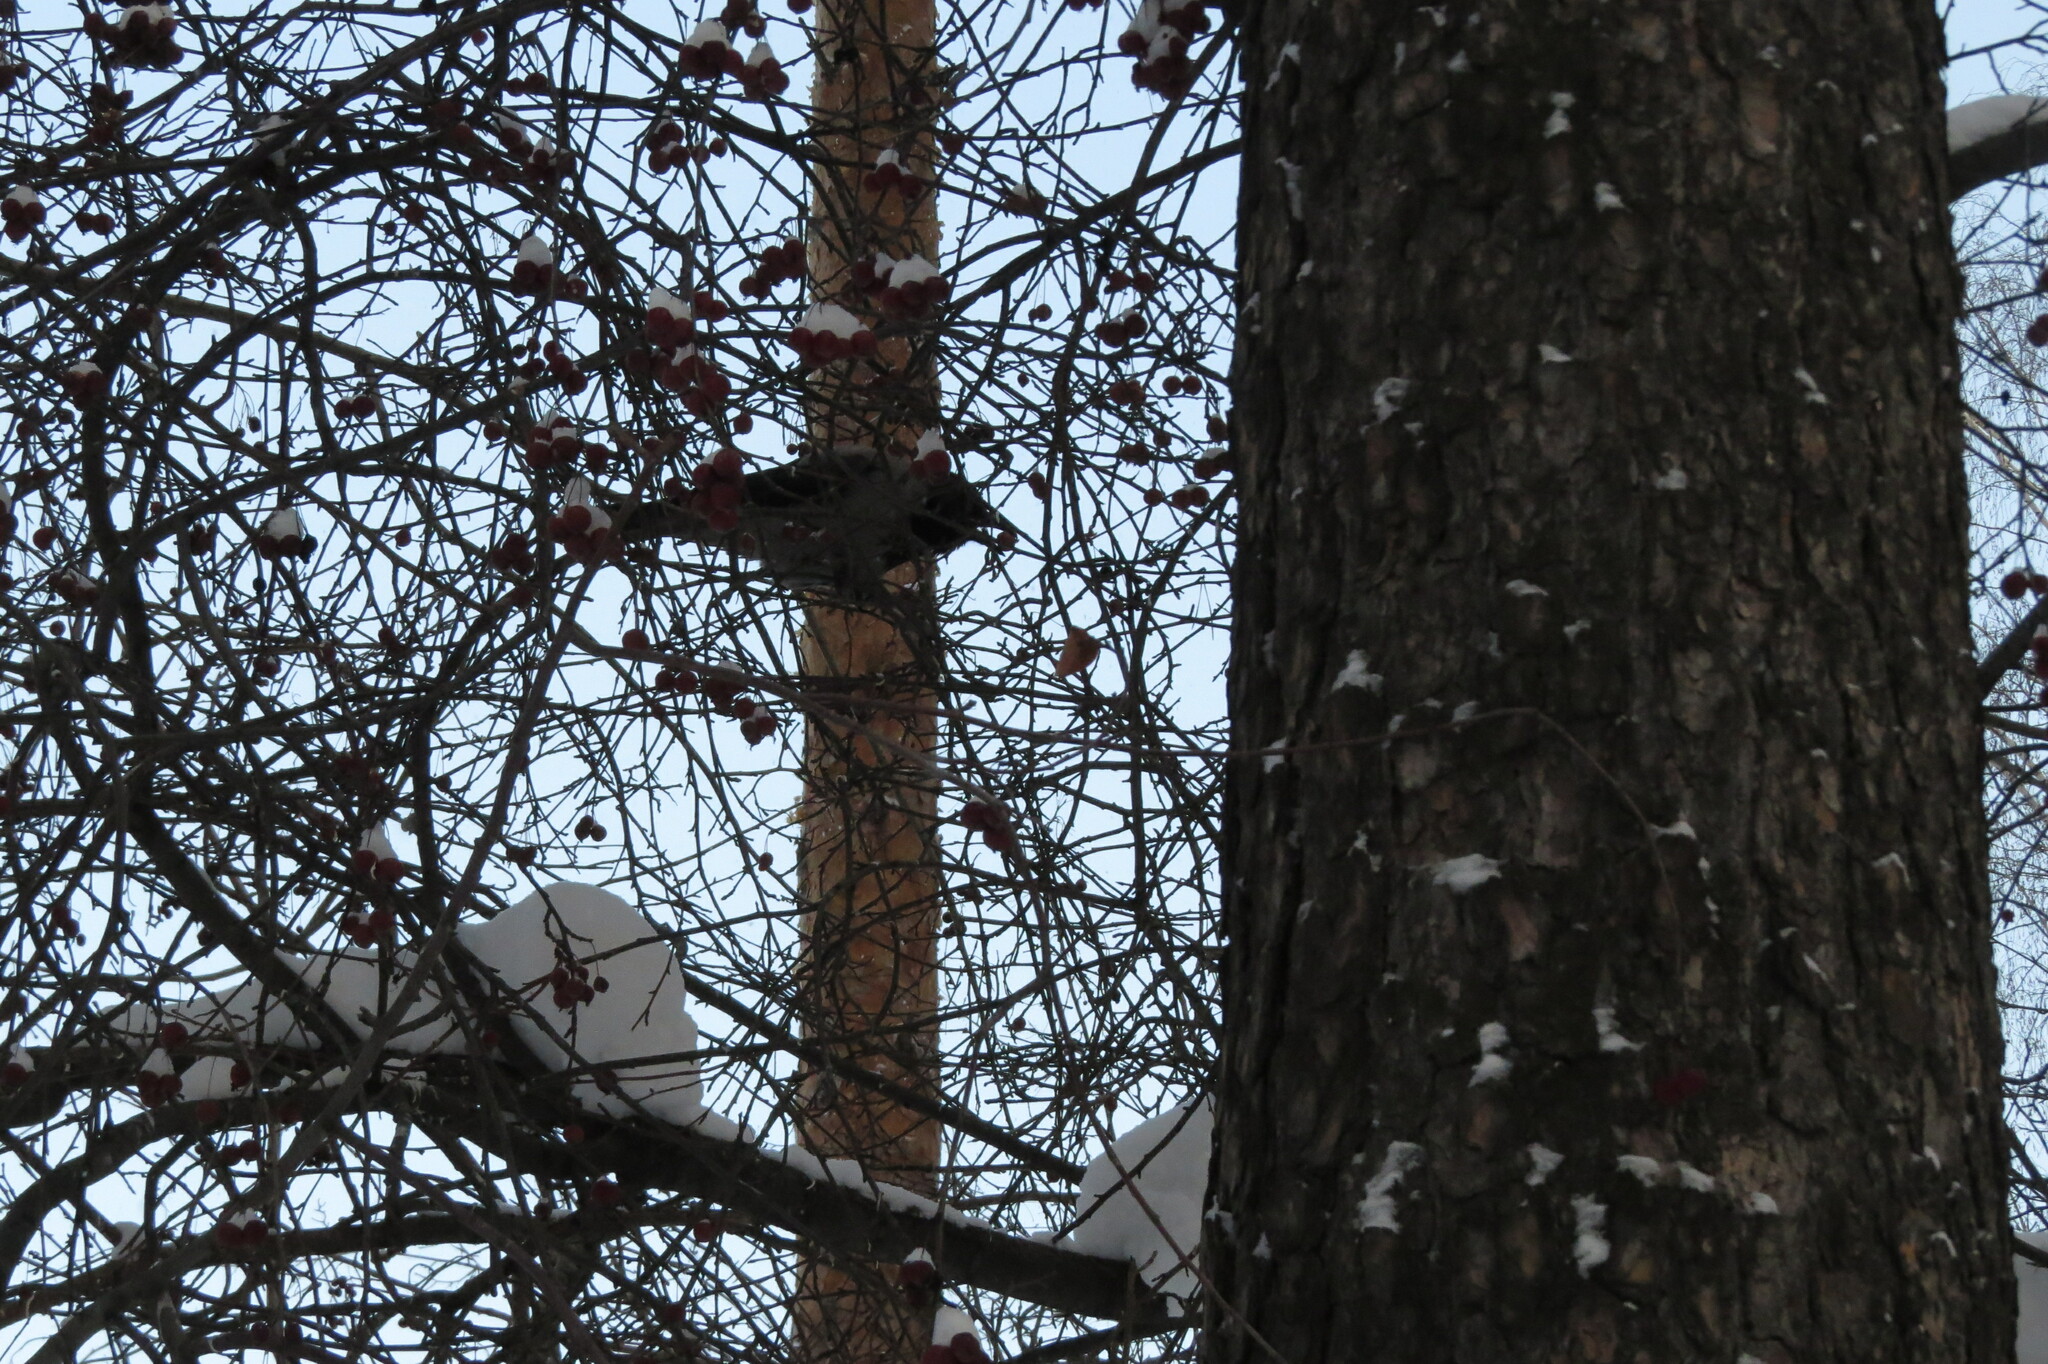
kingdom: Animalia
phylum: Chordata
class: Aves
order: Passeriformes
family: Corvidae
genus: Corvus
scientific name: Corvus cornix
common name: Hooded crow
